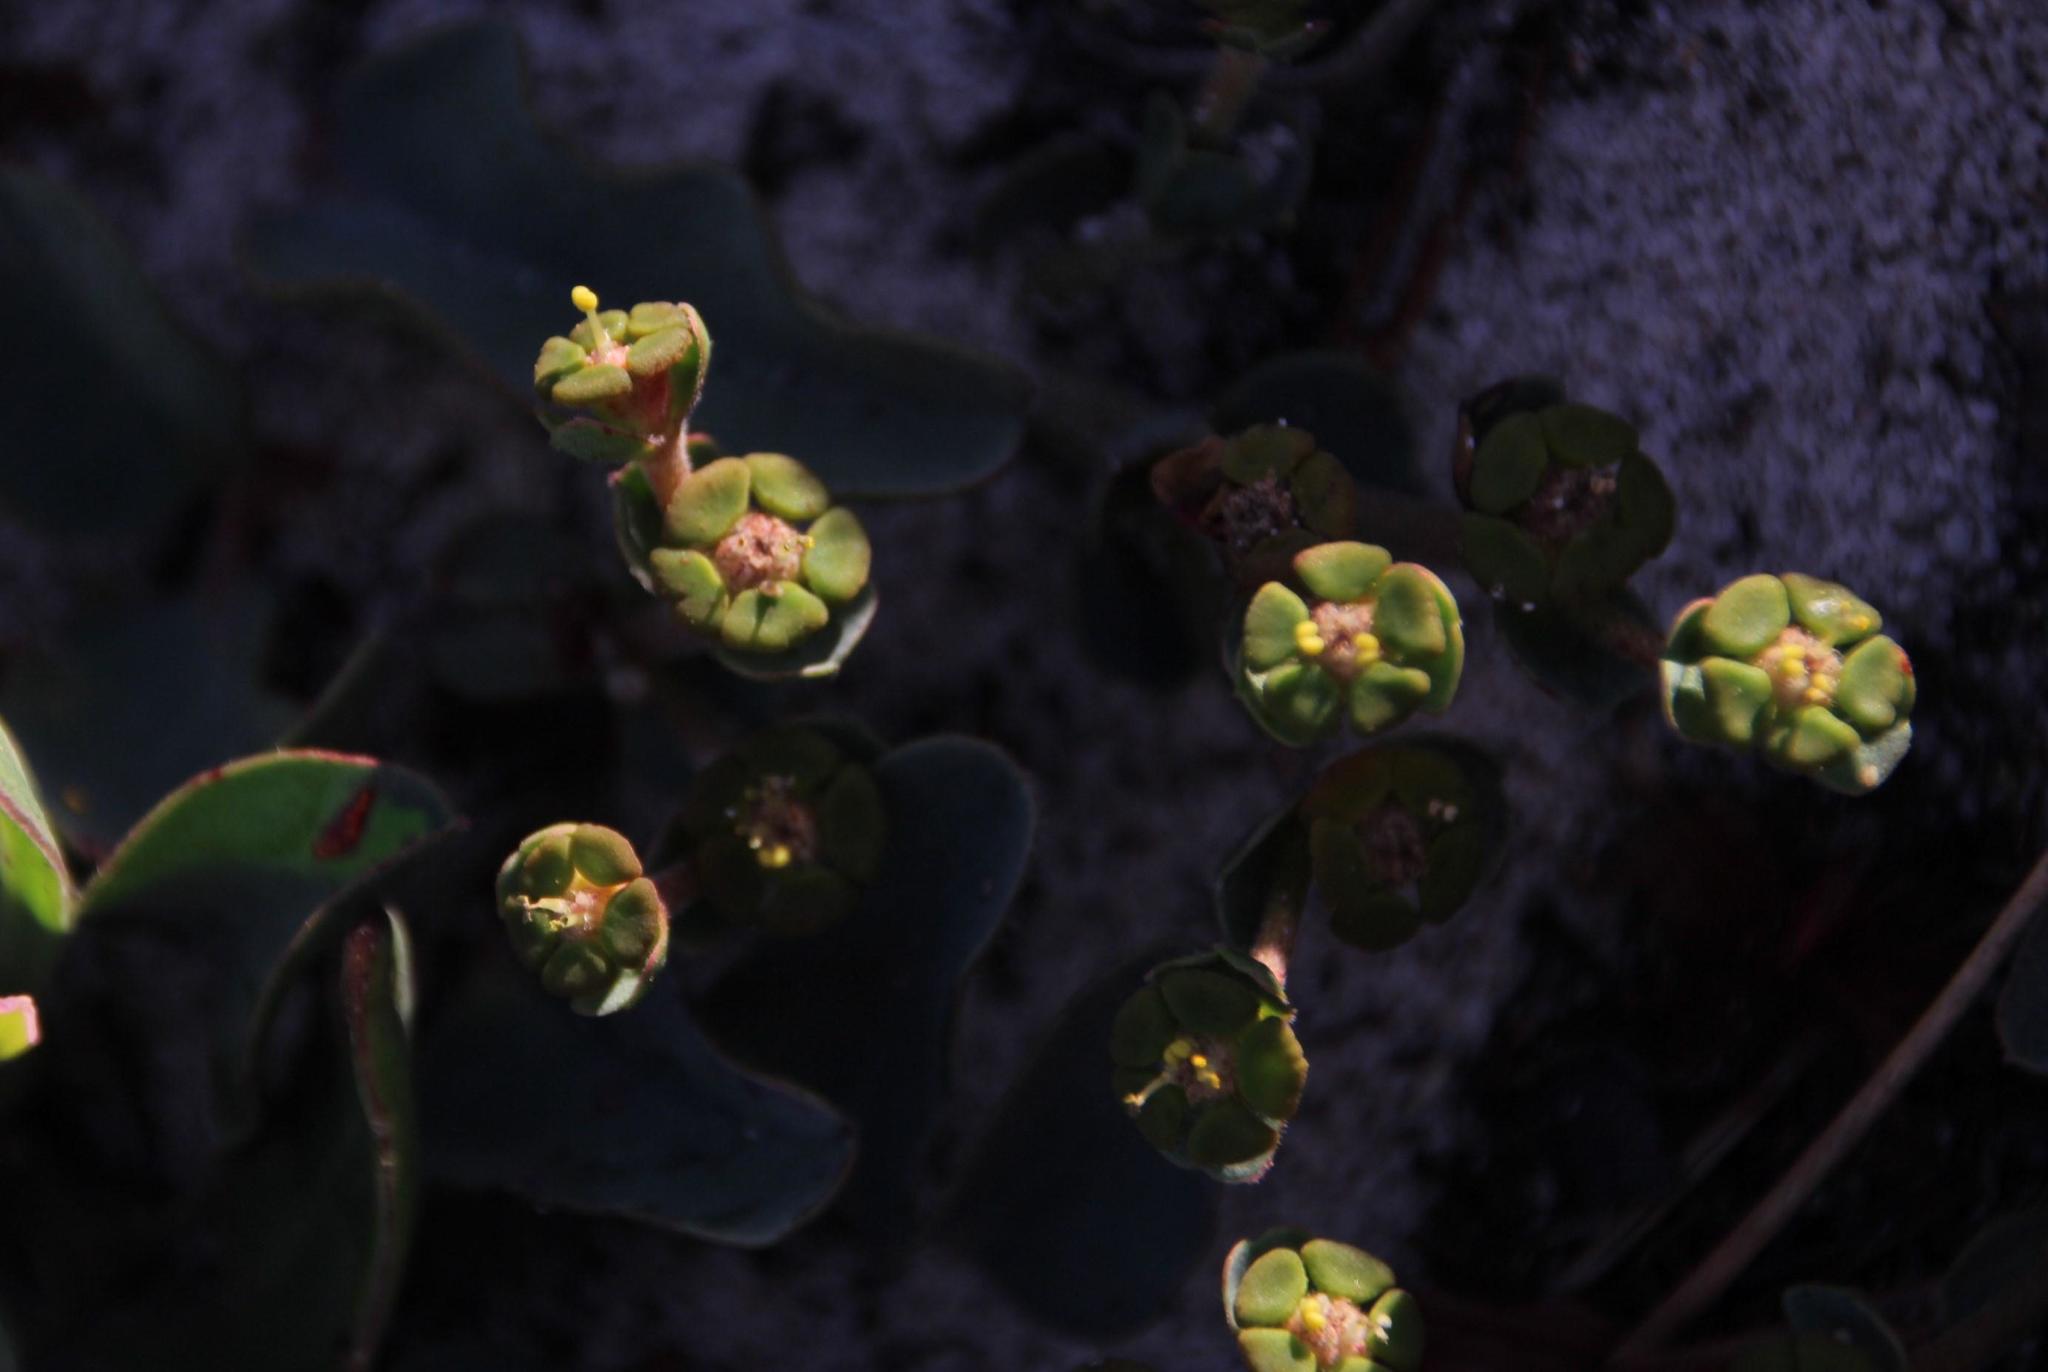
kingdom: Plantae
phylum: Tracheophyta
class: Magnoliopsida
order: Malpighiales
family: Euphorbiaceae
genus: Euphorbia
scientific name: Euphorbia tuberosa
